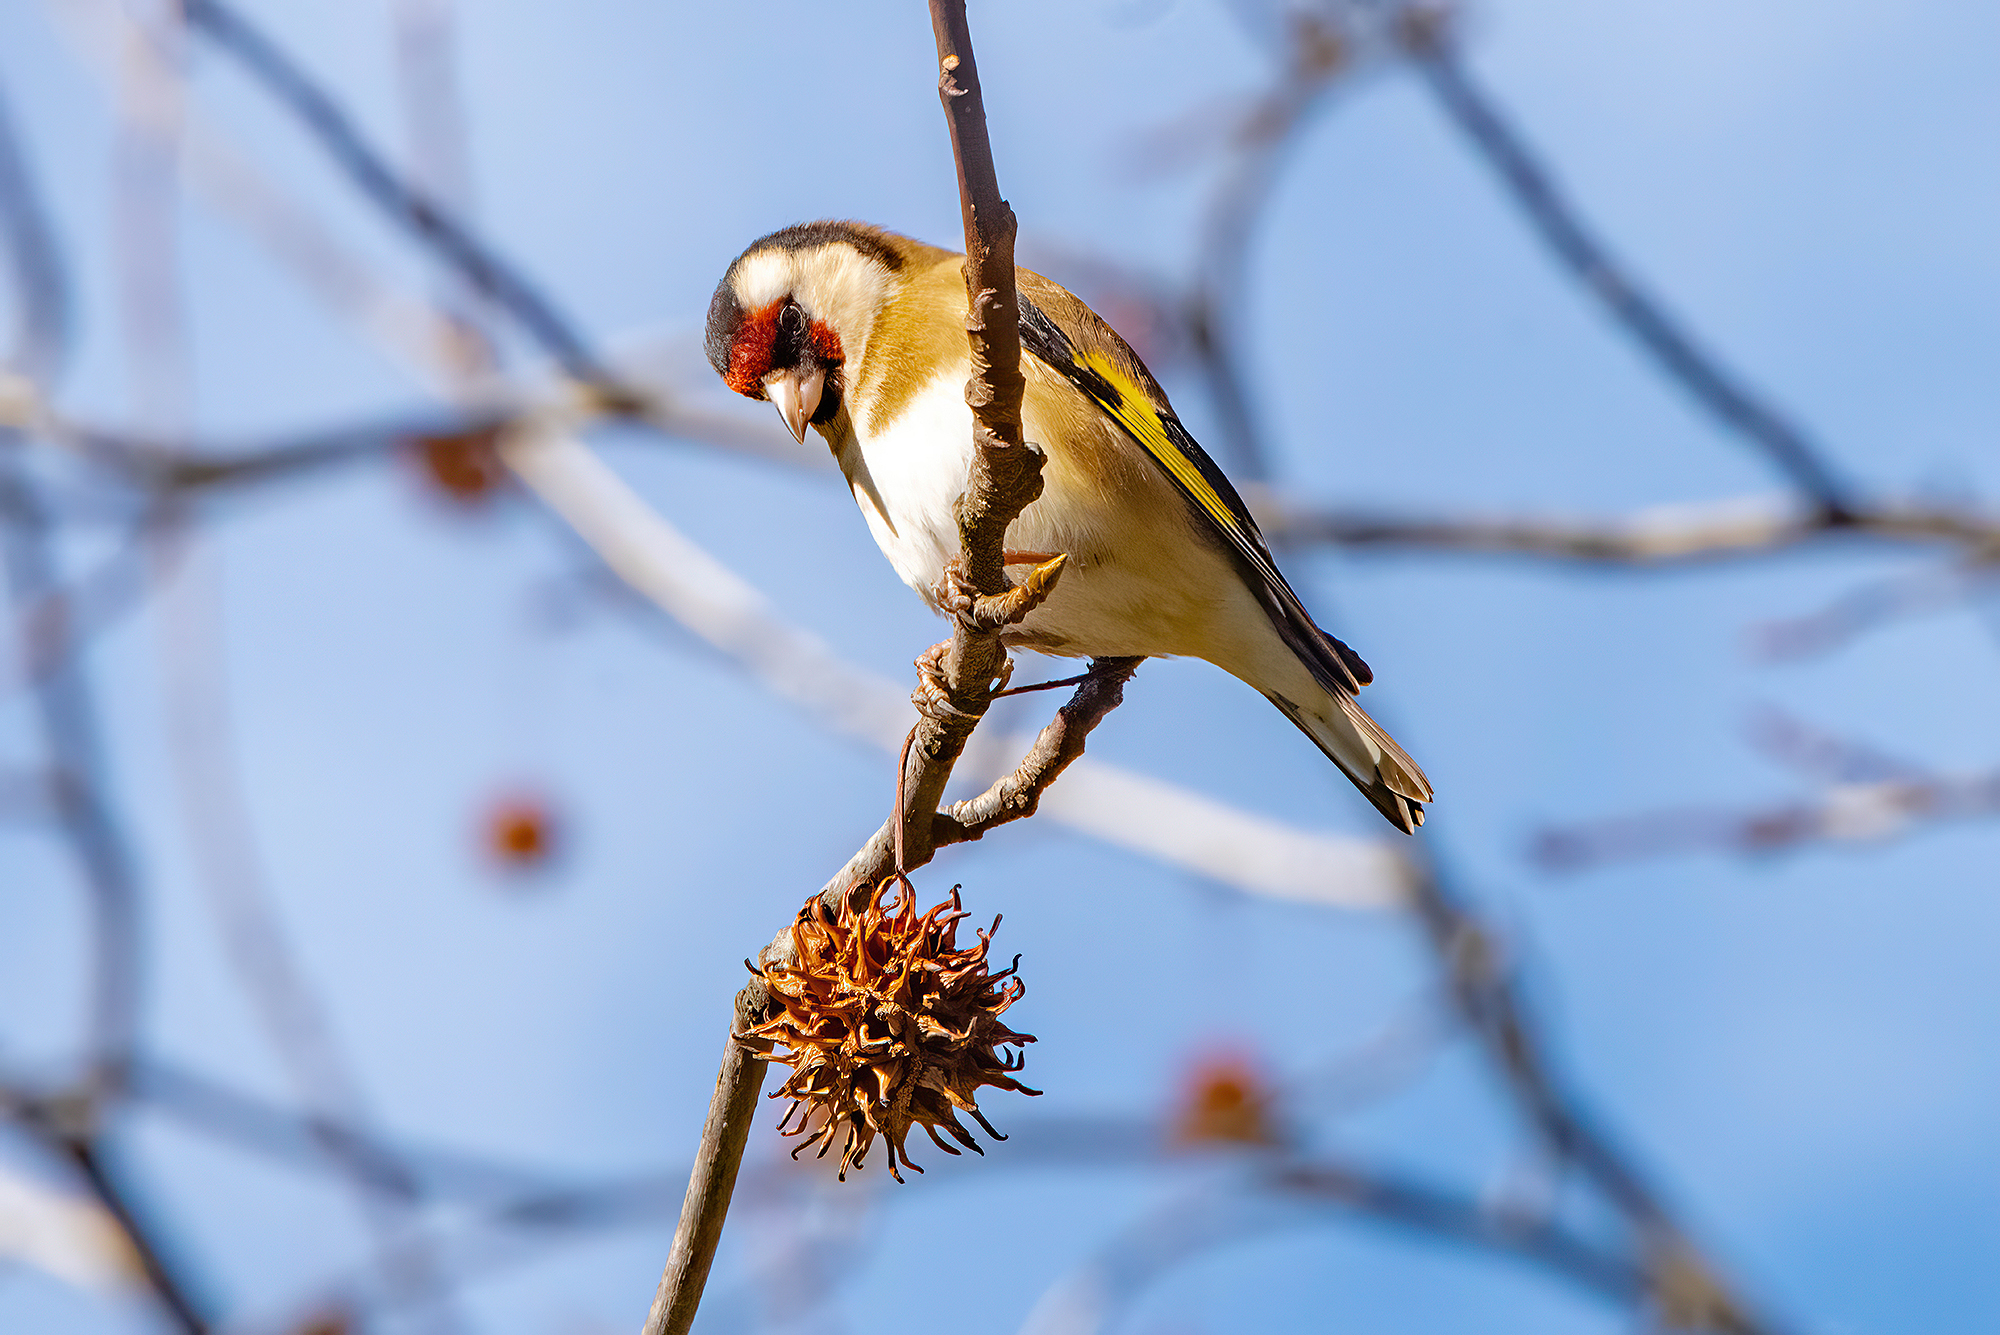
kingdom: Animalia
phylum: Chordata
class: Aves
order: Passeriformes
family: Fringillidae
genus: Carduelis
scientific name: Carduelis carduelis
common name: European goldfinch
